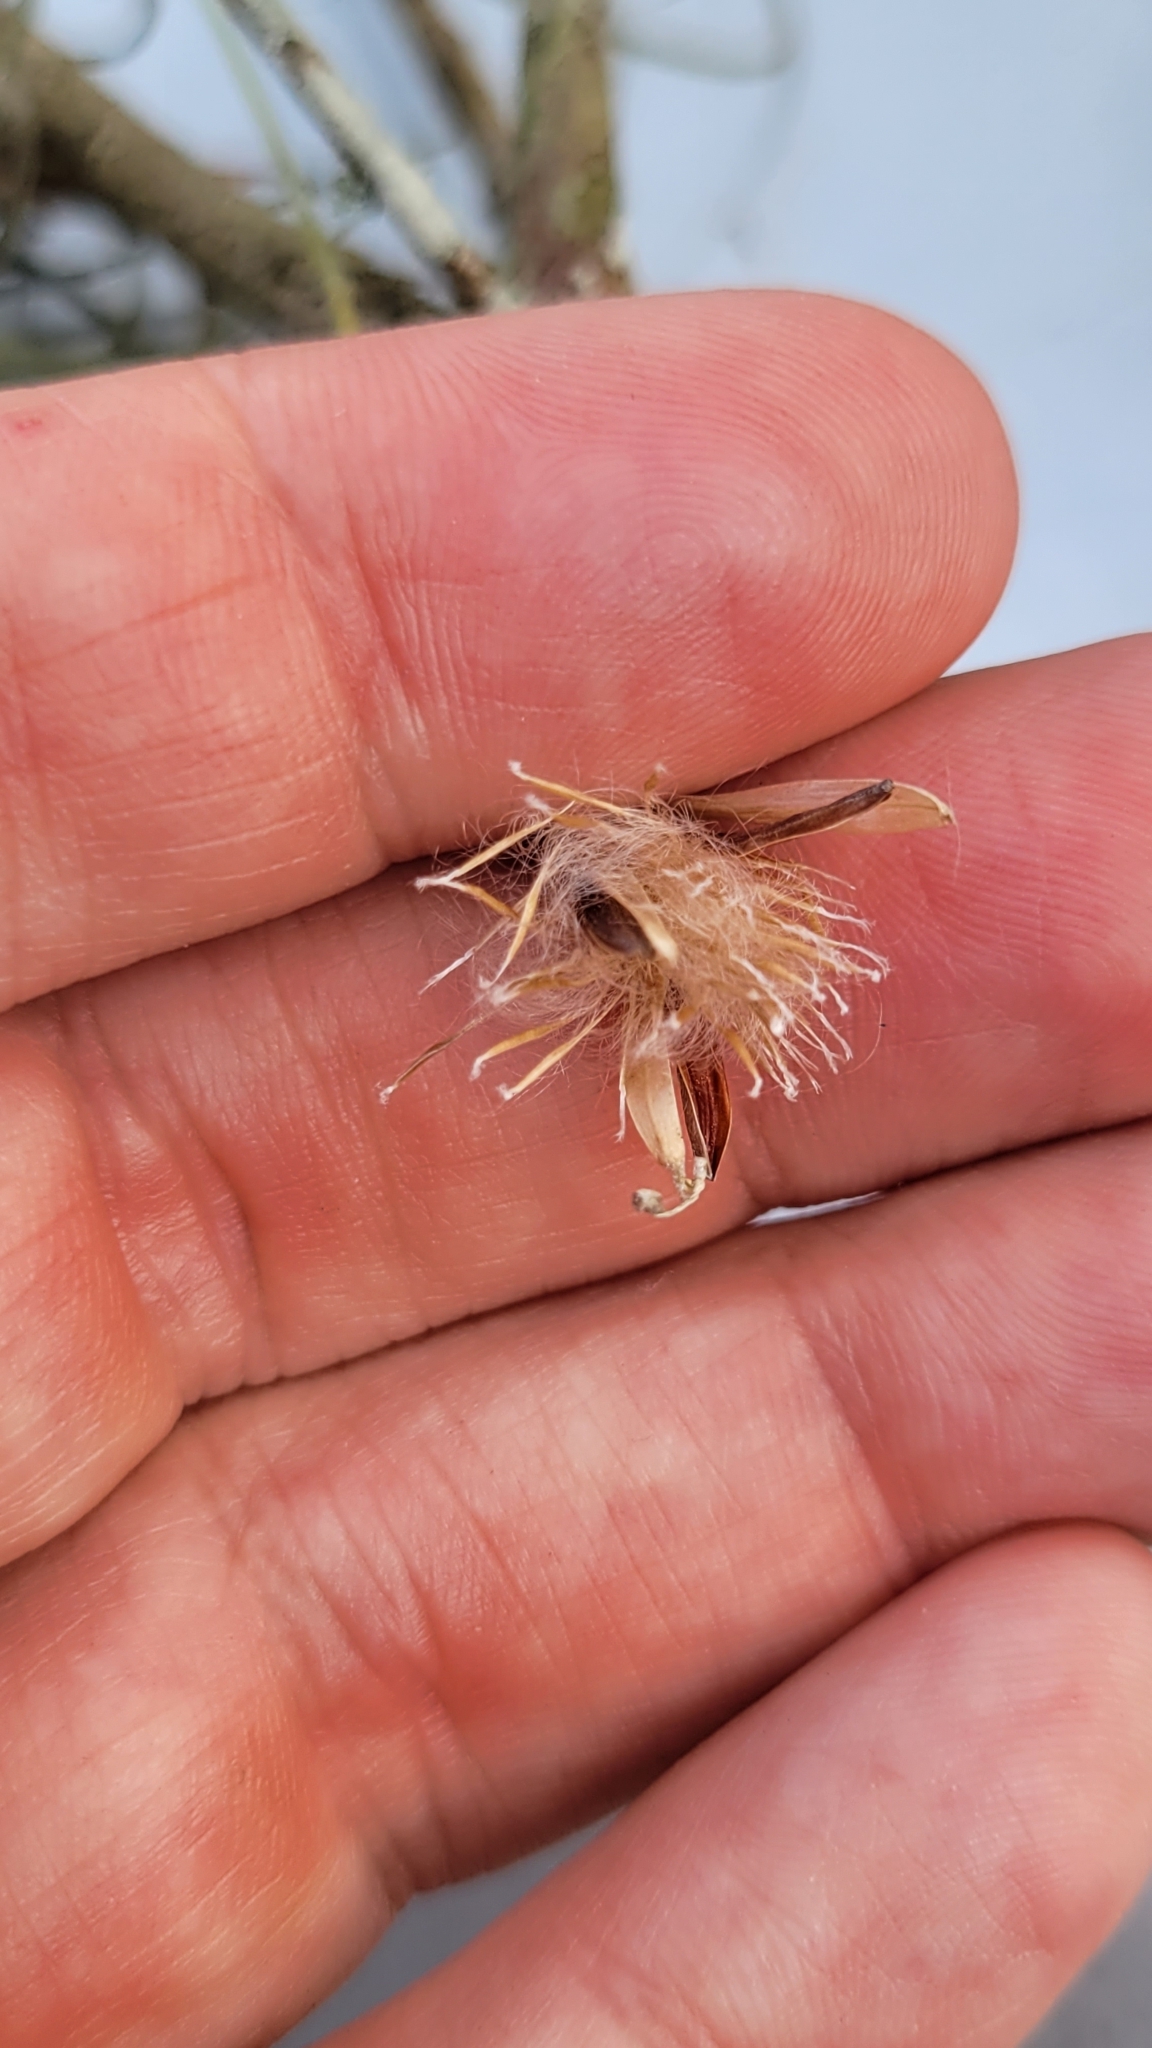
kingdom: Plantae
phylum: Tracheophyta
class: Liliopsida
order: Poales
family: Bromeliaceae
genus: Tillandsia
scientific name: Tillandsia recurvata
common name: Small ballmoss
